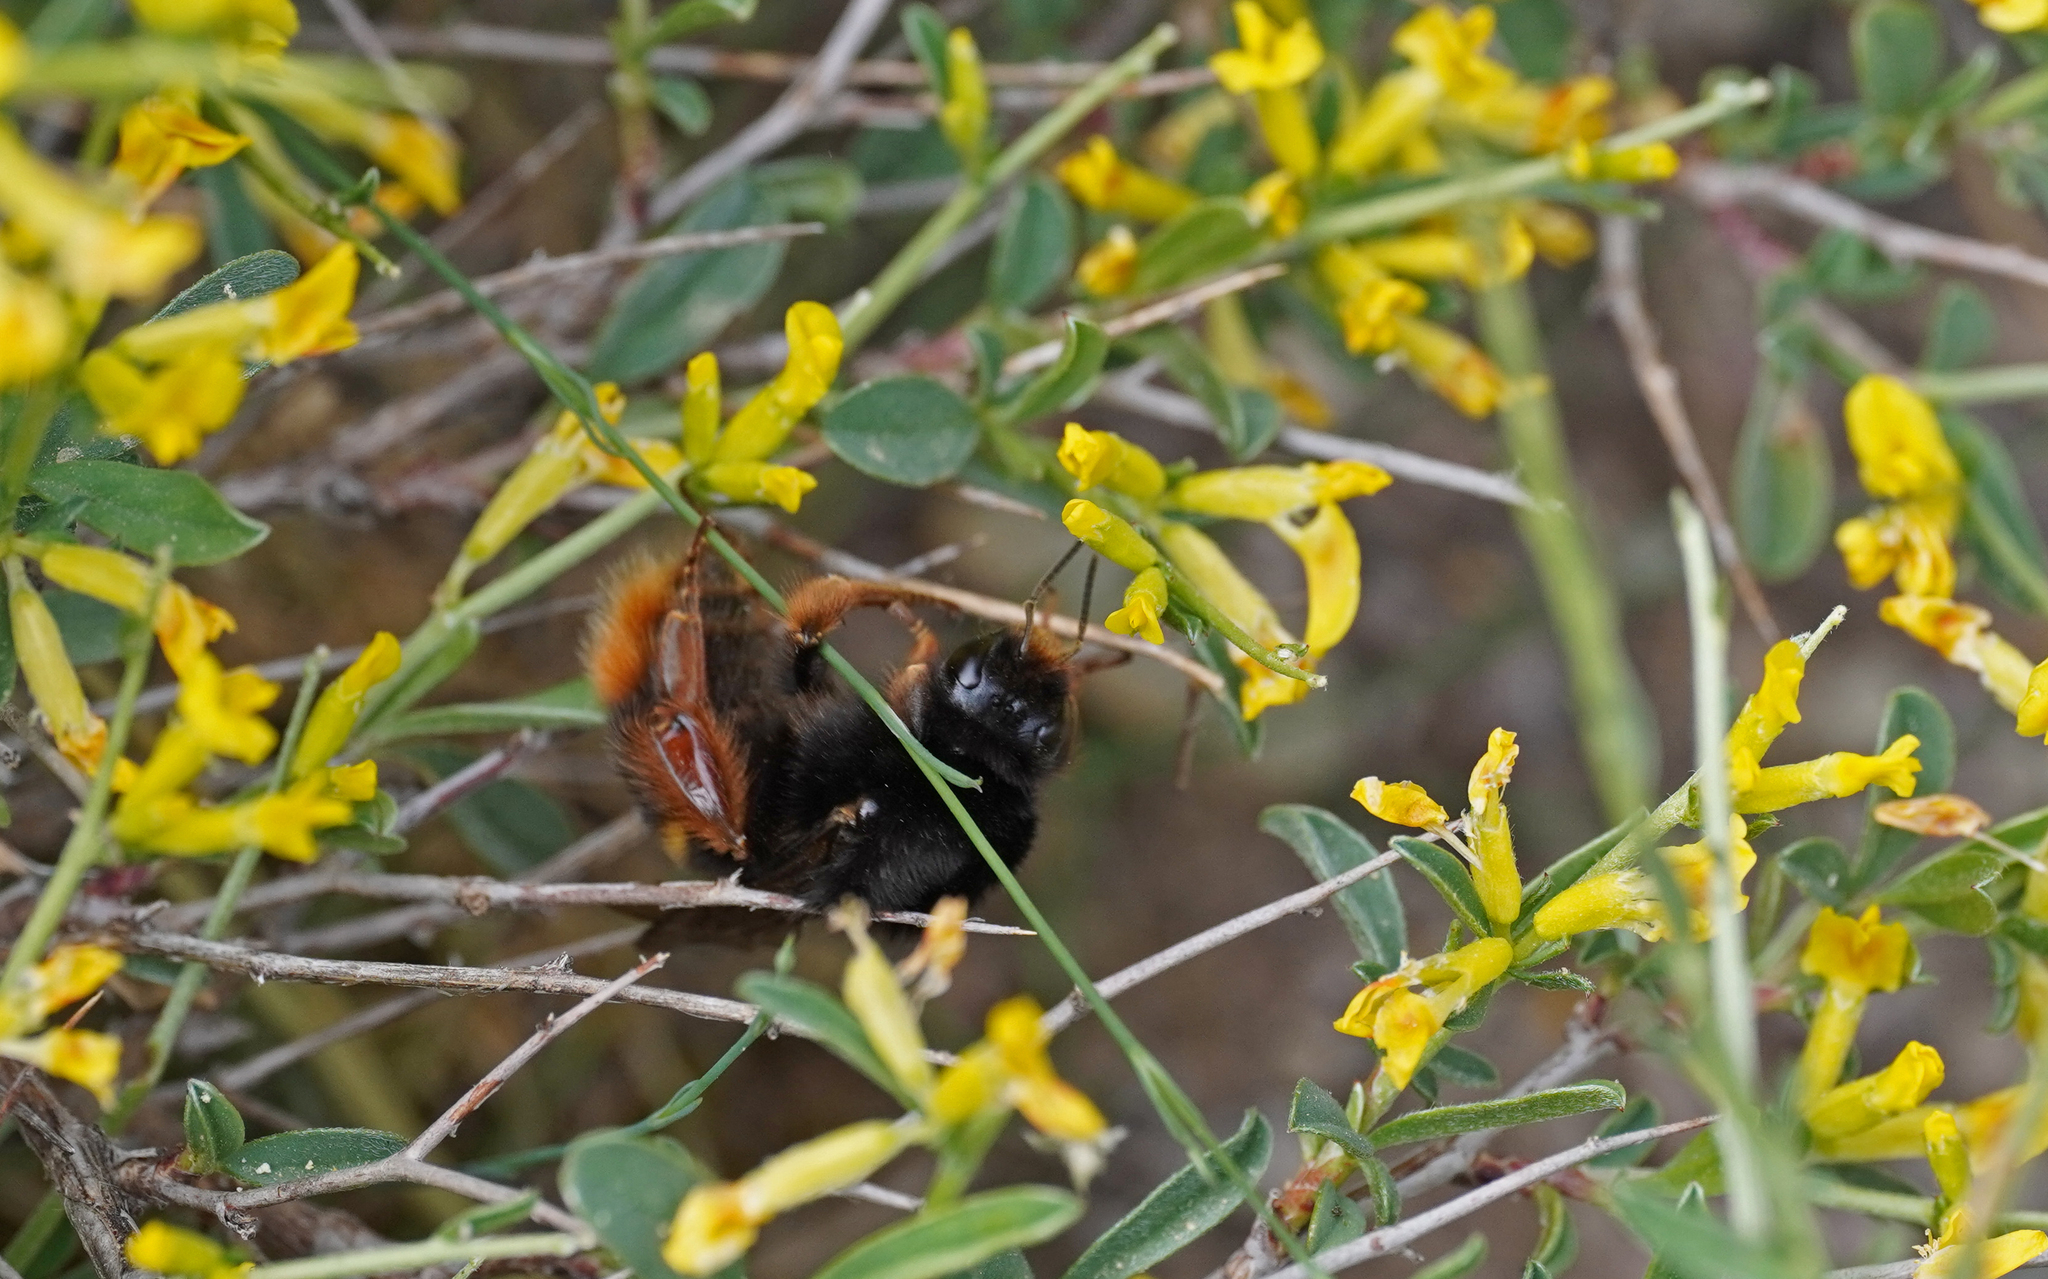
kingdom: Animalia
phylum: Arthropoda
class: Insecta
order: Hymenoptera
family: Apidae
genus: Bombus
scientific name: Bombus terrestris
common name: Buff-tailed bumblebee
